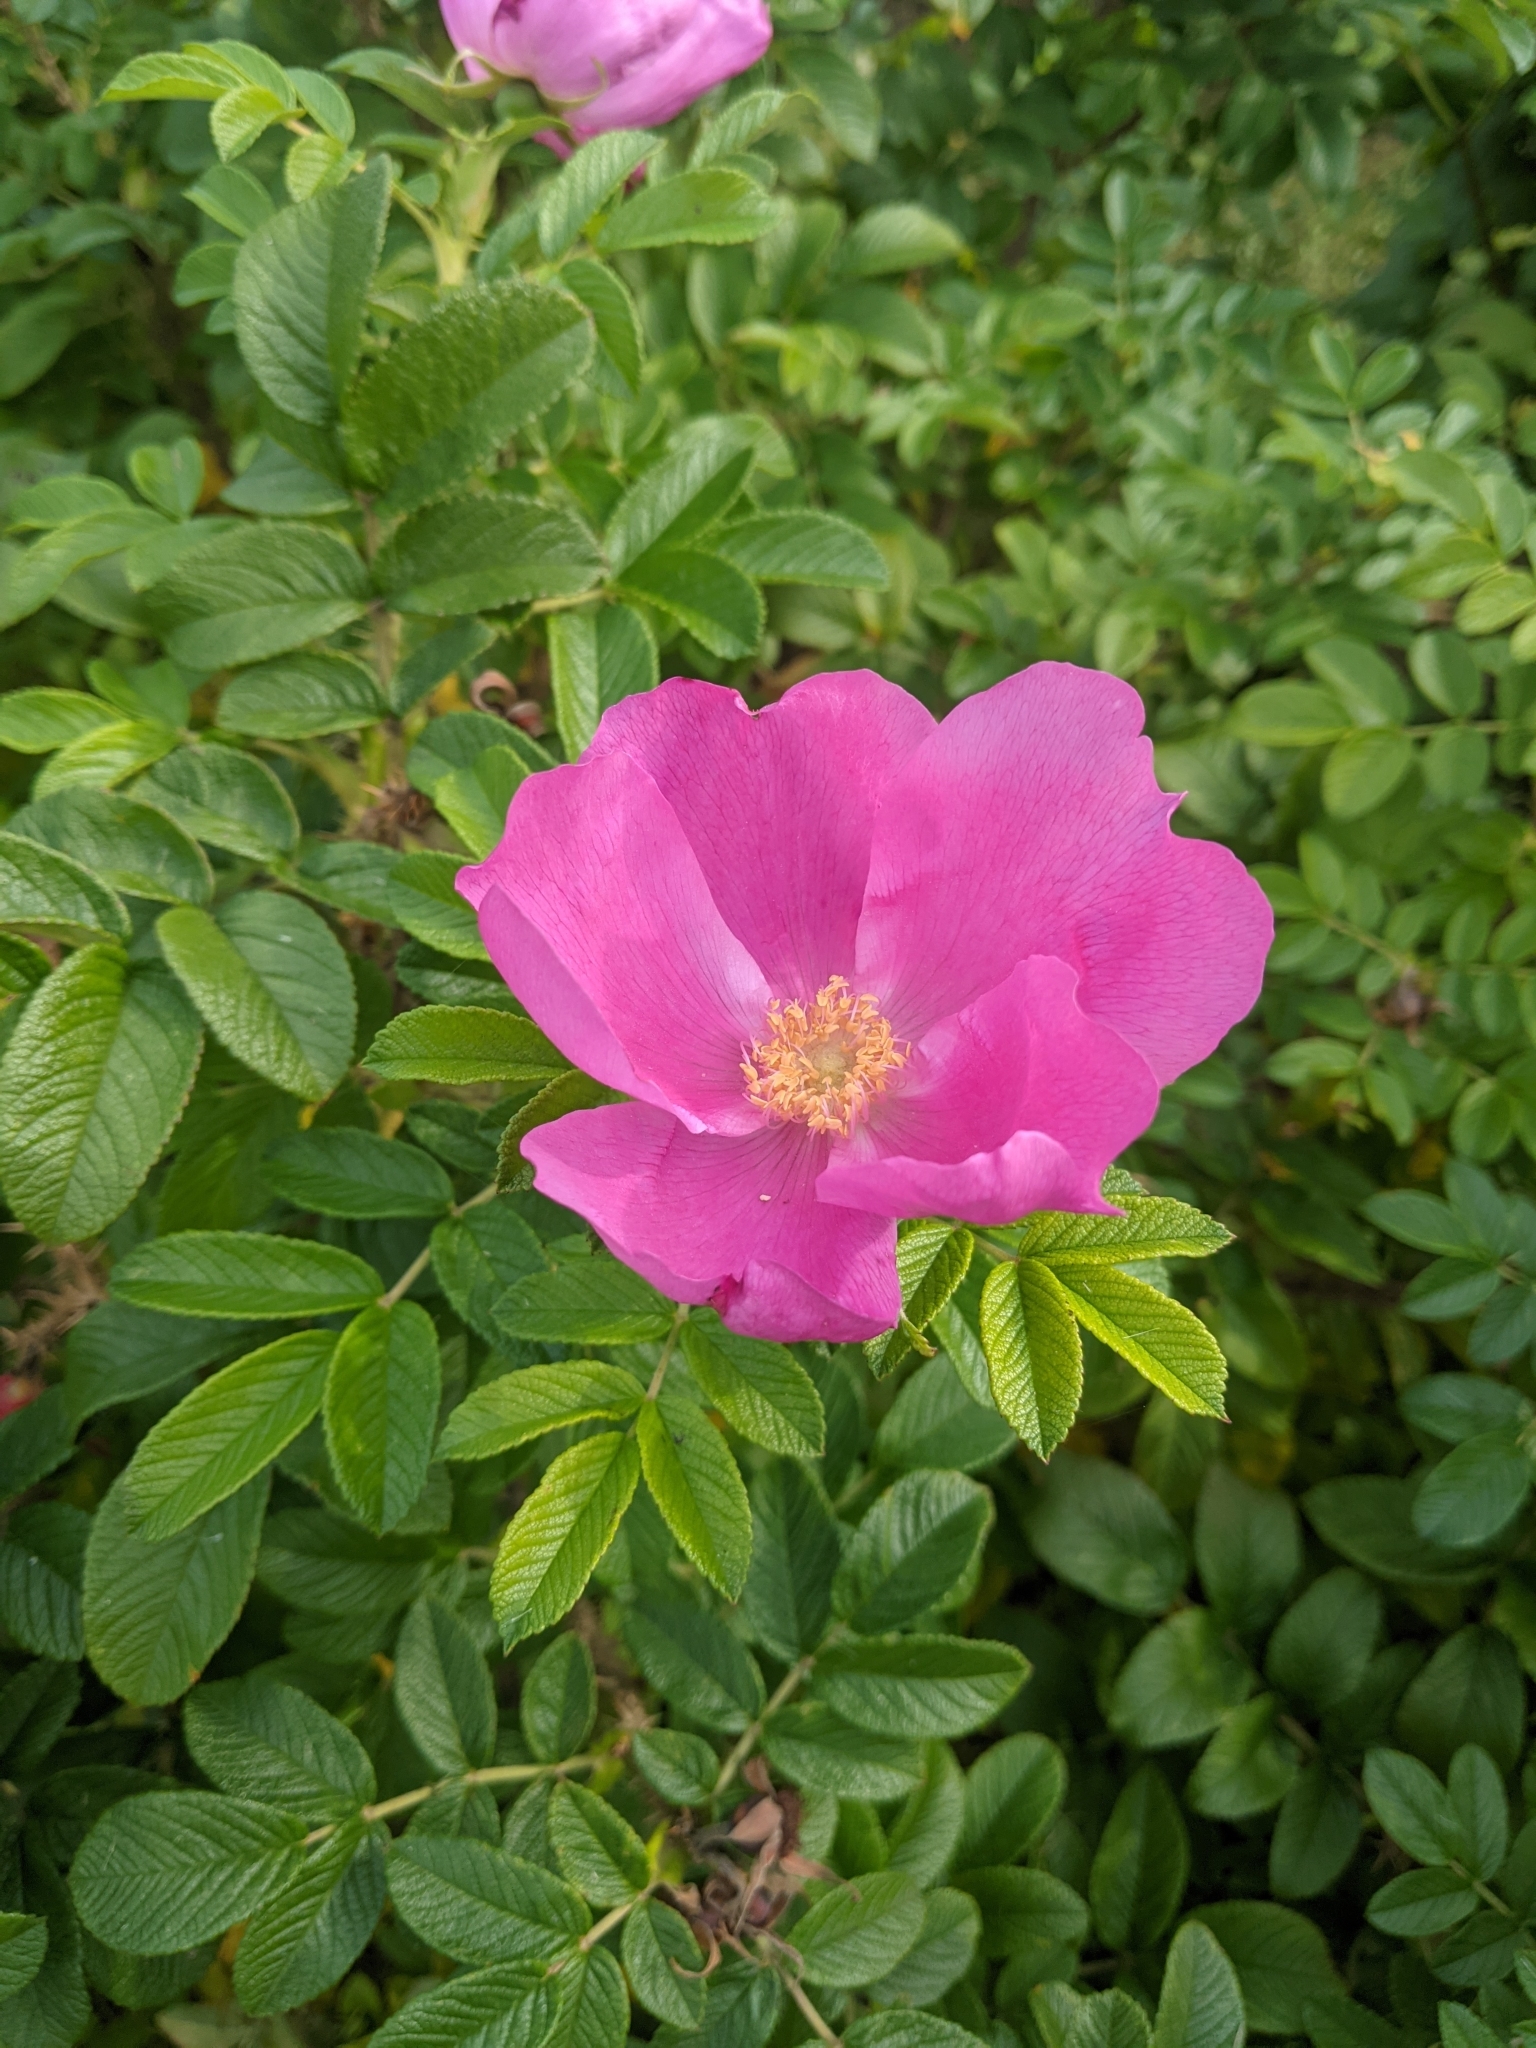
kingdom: Plantae
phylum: Tracheophyta
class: Magnoliopsida
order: Rosales
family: Rosaceae
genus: Rosa
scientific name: Rosa rugosa
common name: Japanese rose
